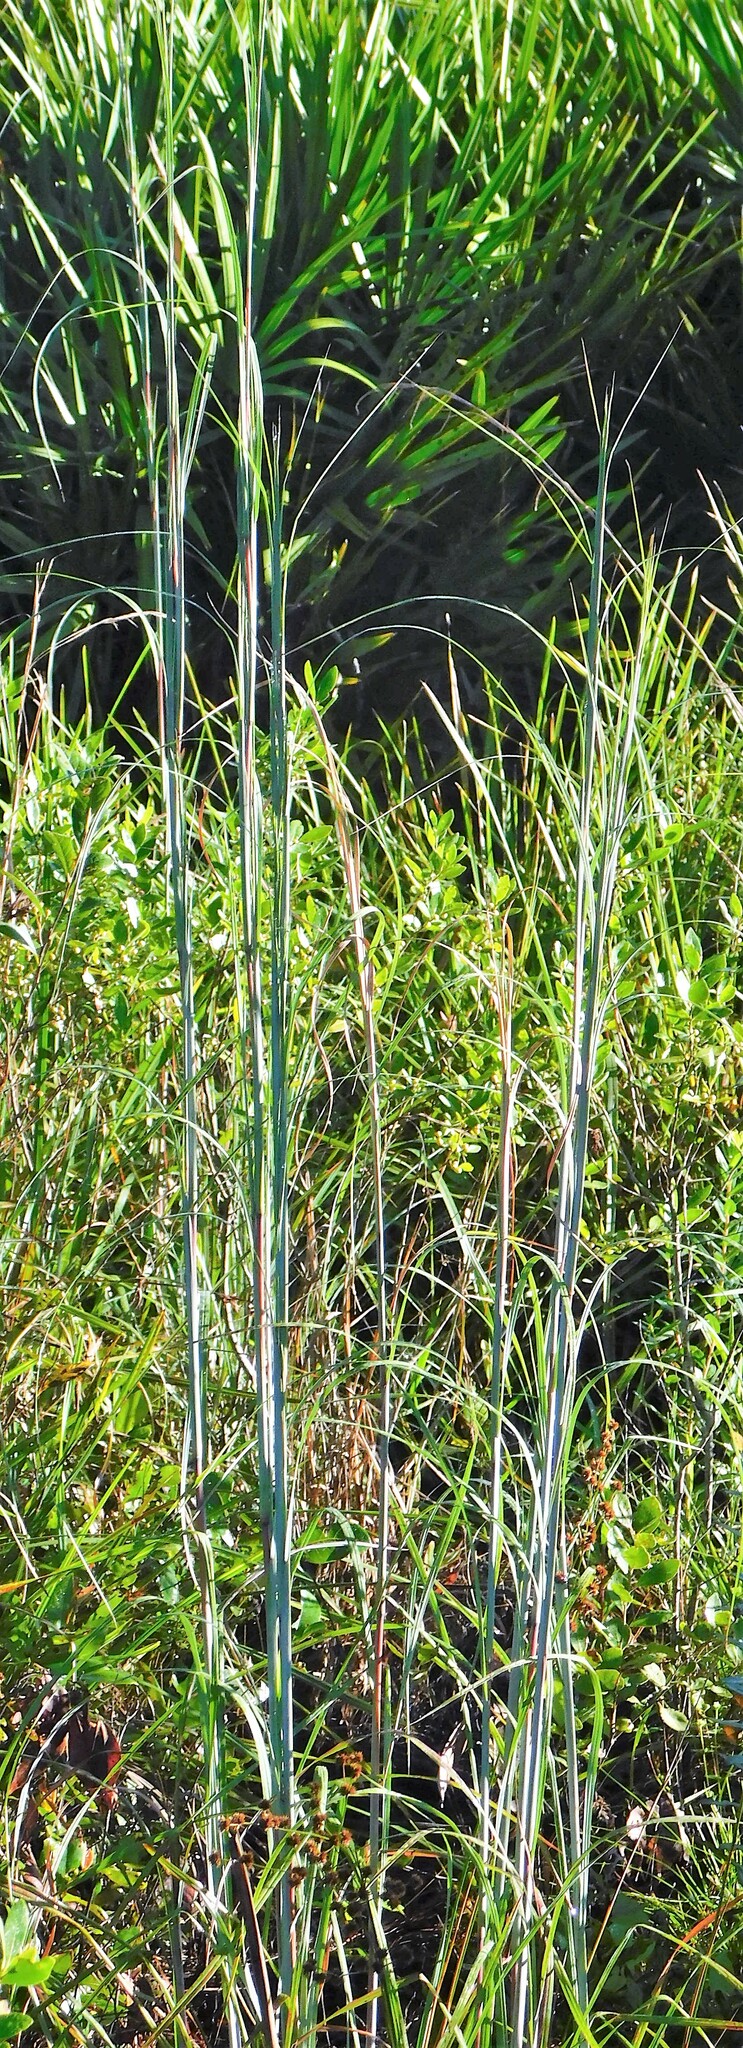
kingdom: Plantae
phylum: Tracheophyta
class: Liliopsida
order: Poales
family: Poaceae
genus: Andropogon
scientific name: Andropogon cretaceus
